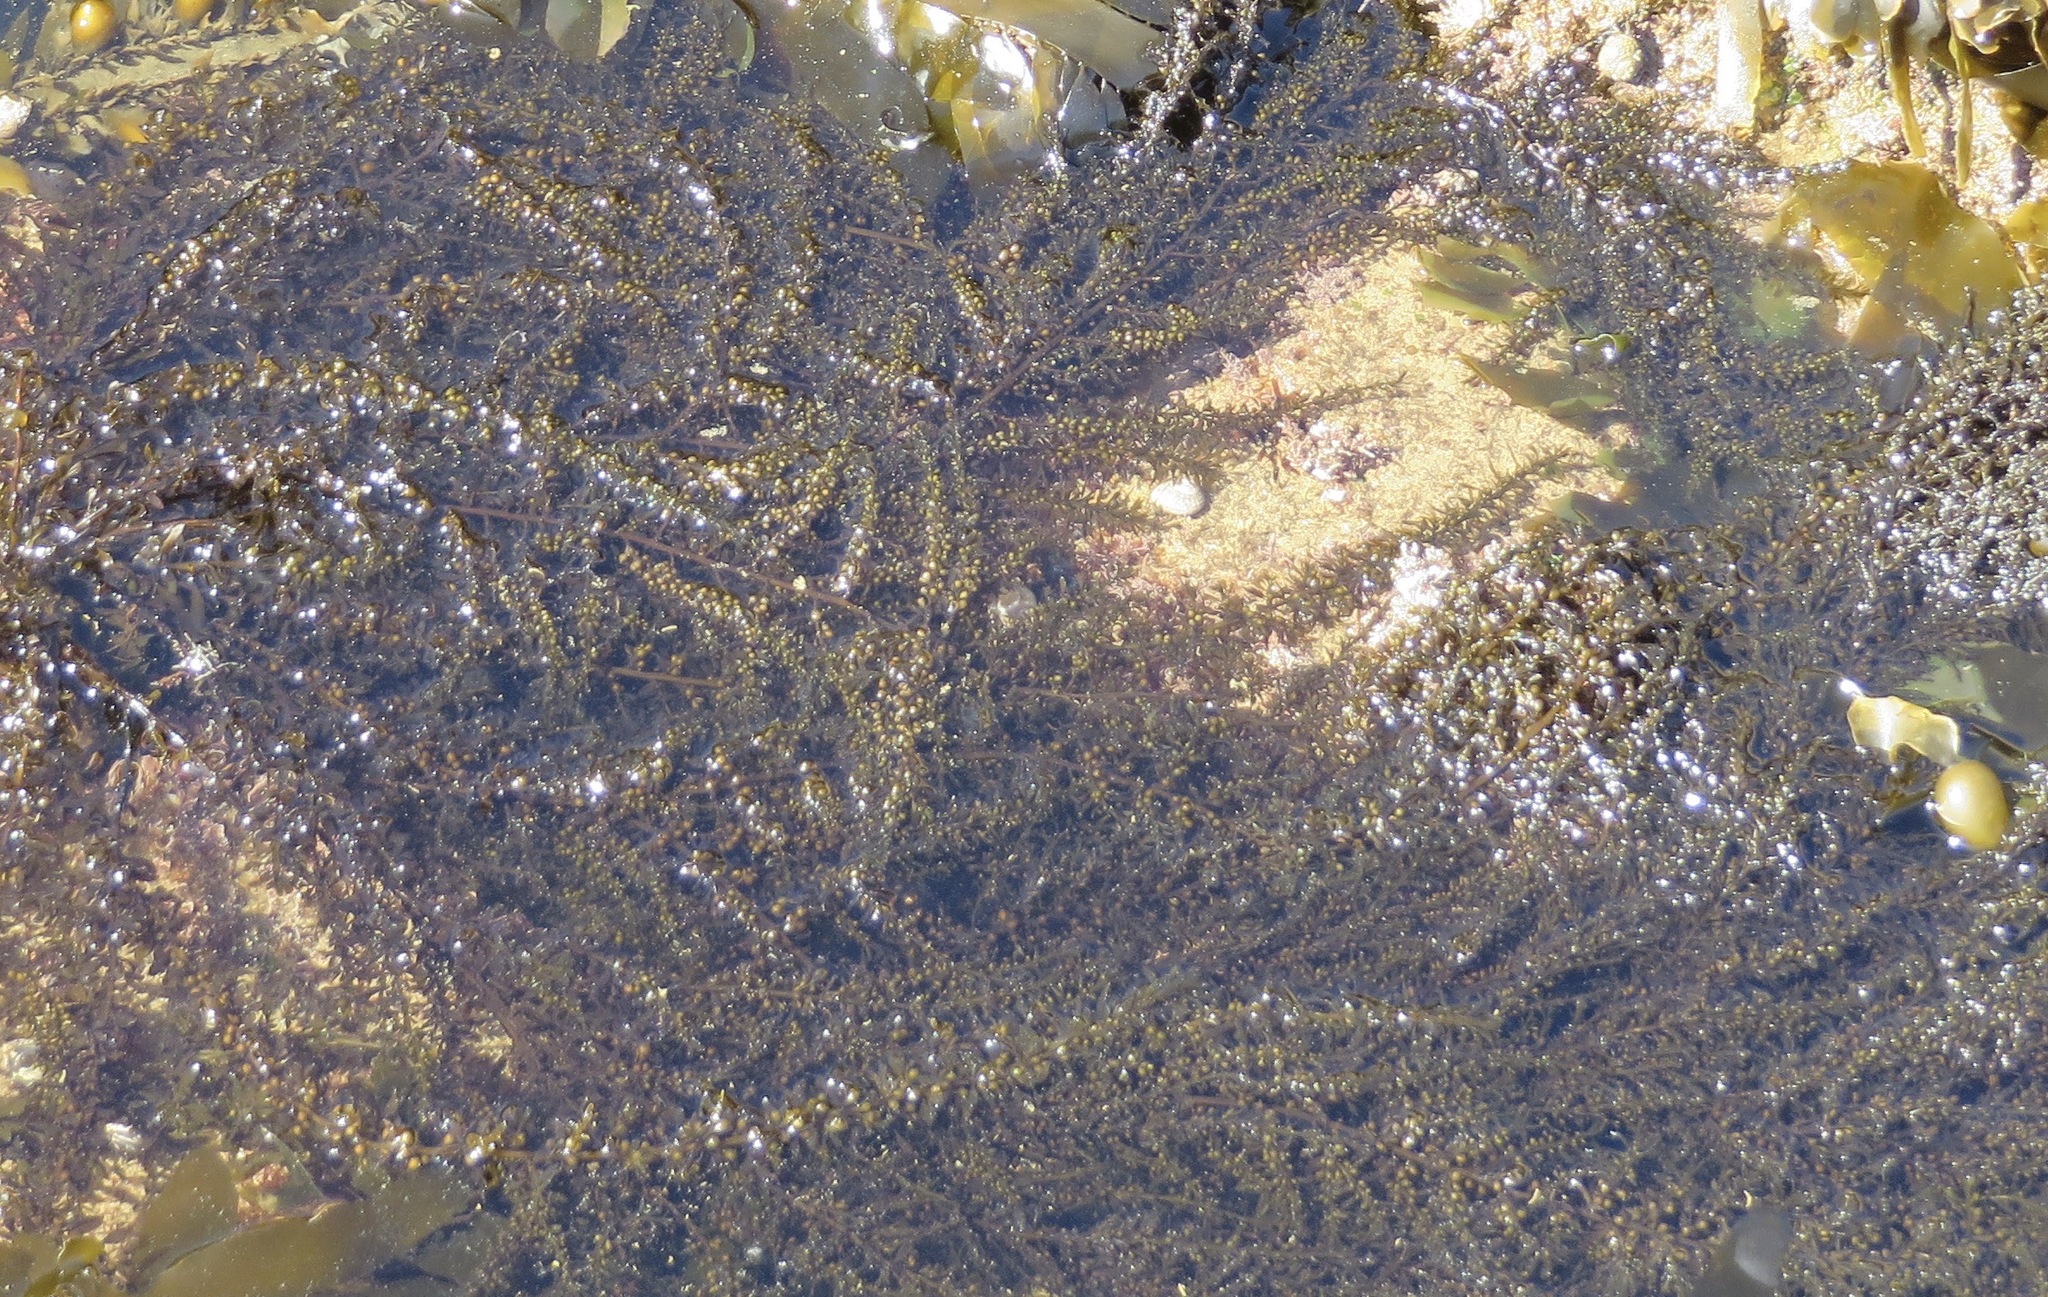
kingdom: Chromista
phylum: Ochrophyta
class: Phaeophyceae
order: Fucales
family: Sargassaceae
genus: Sargassum
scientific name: Sargassum muticum
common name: Japweed
